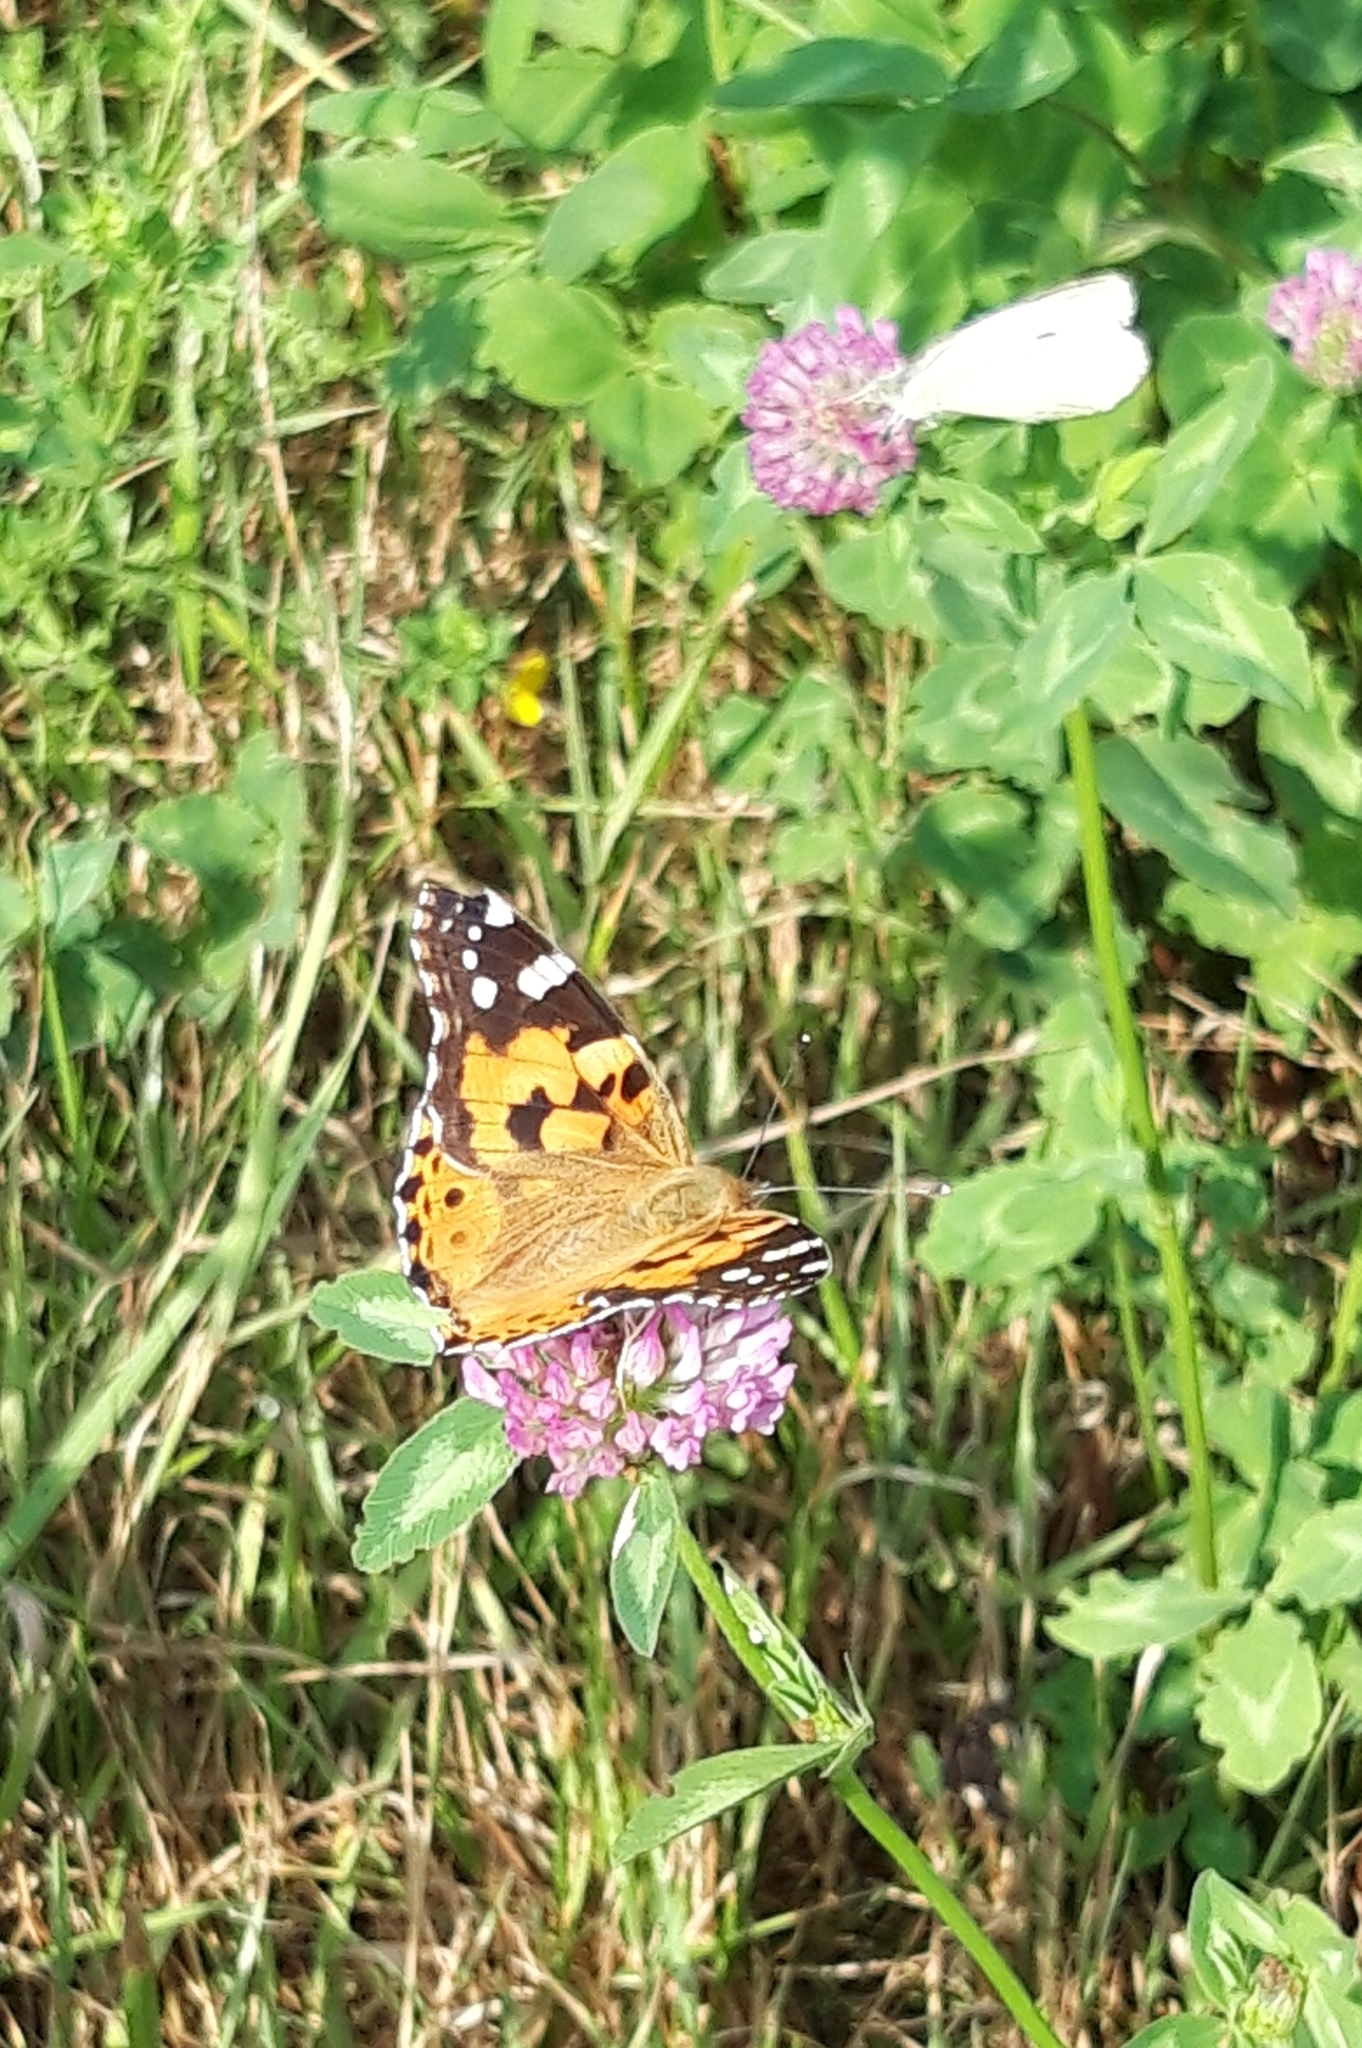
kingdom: Animalia
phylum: Arthropoda
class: Insecta
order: Lepidoptera
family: Nymphalidae
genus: Vanessa
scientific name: Vanessa cardui
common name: Painted lady
